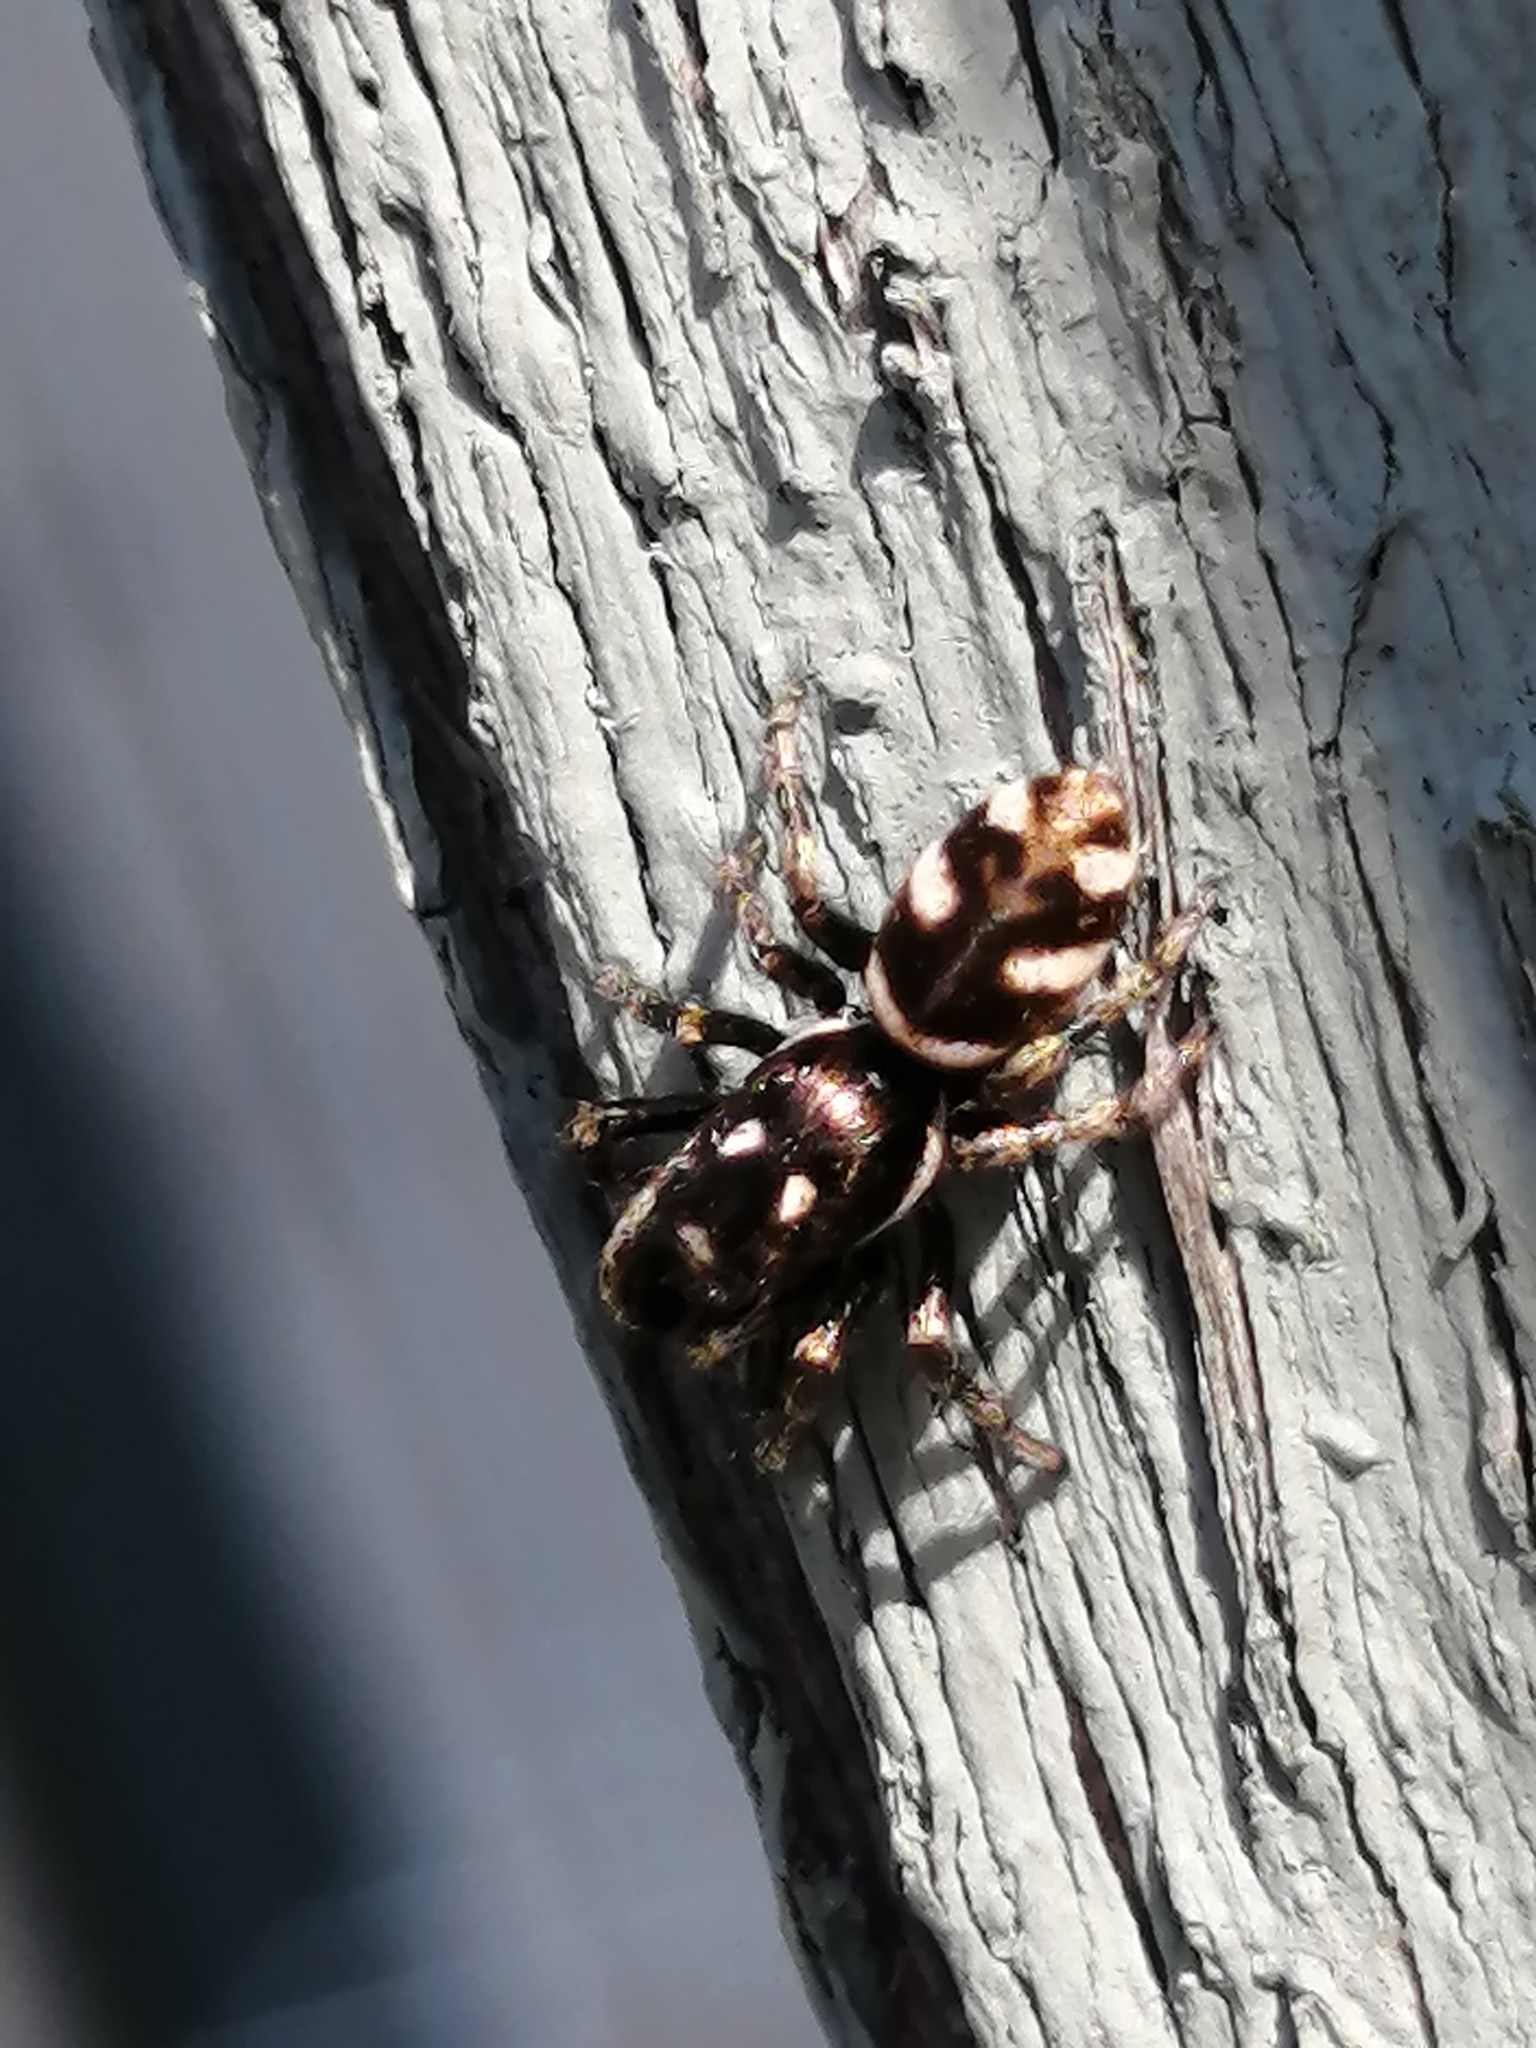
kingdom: Animalia
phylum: Arthropoda
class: Arachnida
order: Araneae
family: Salticidae
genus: Salticus
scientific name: Salticus scenicus
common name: Zebra jumper
